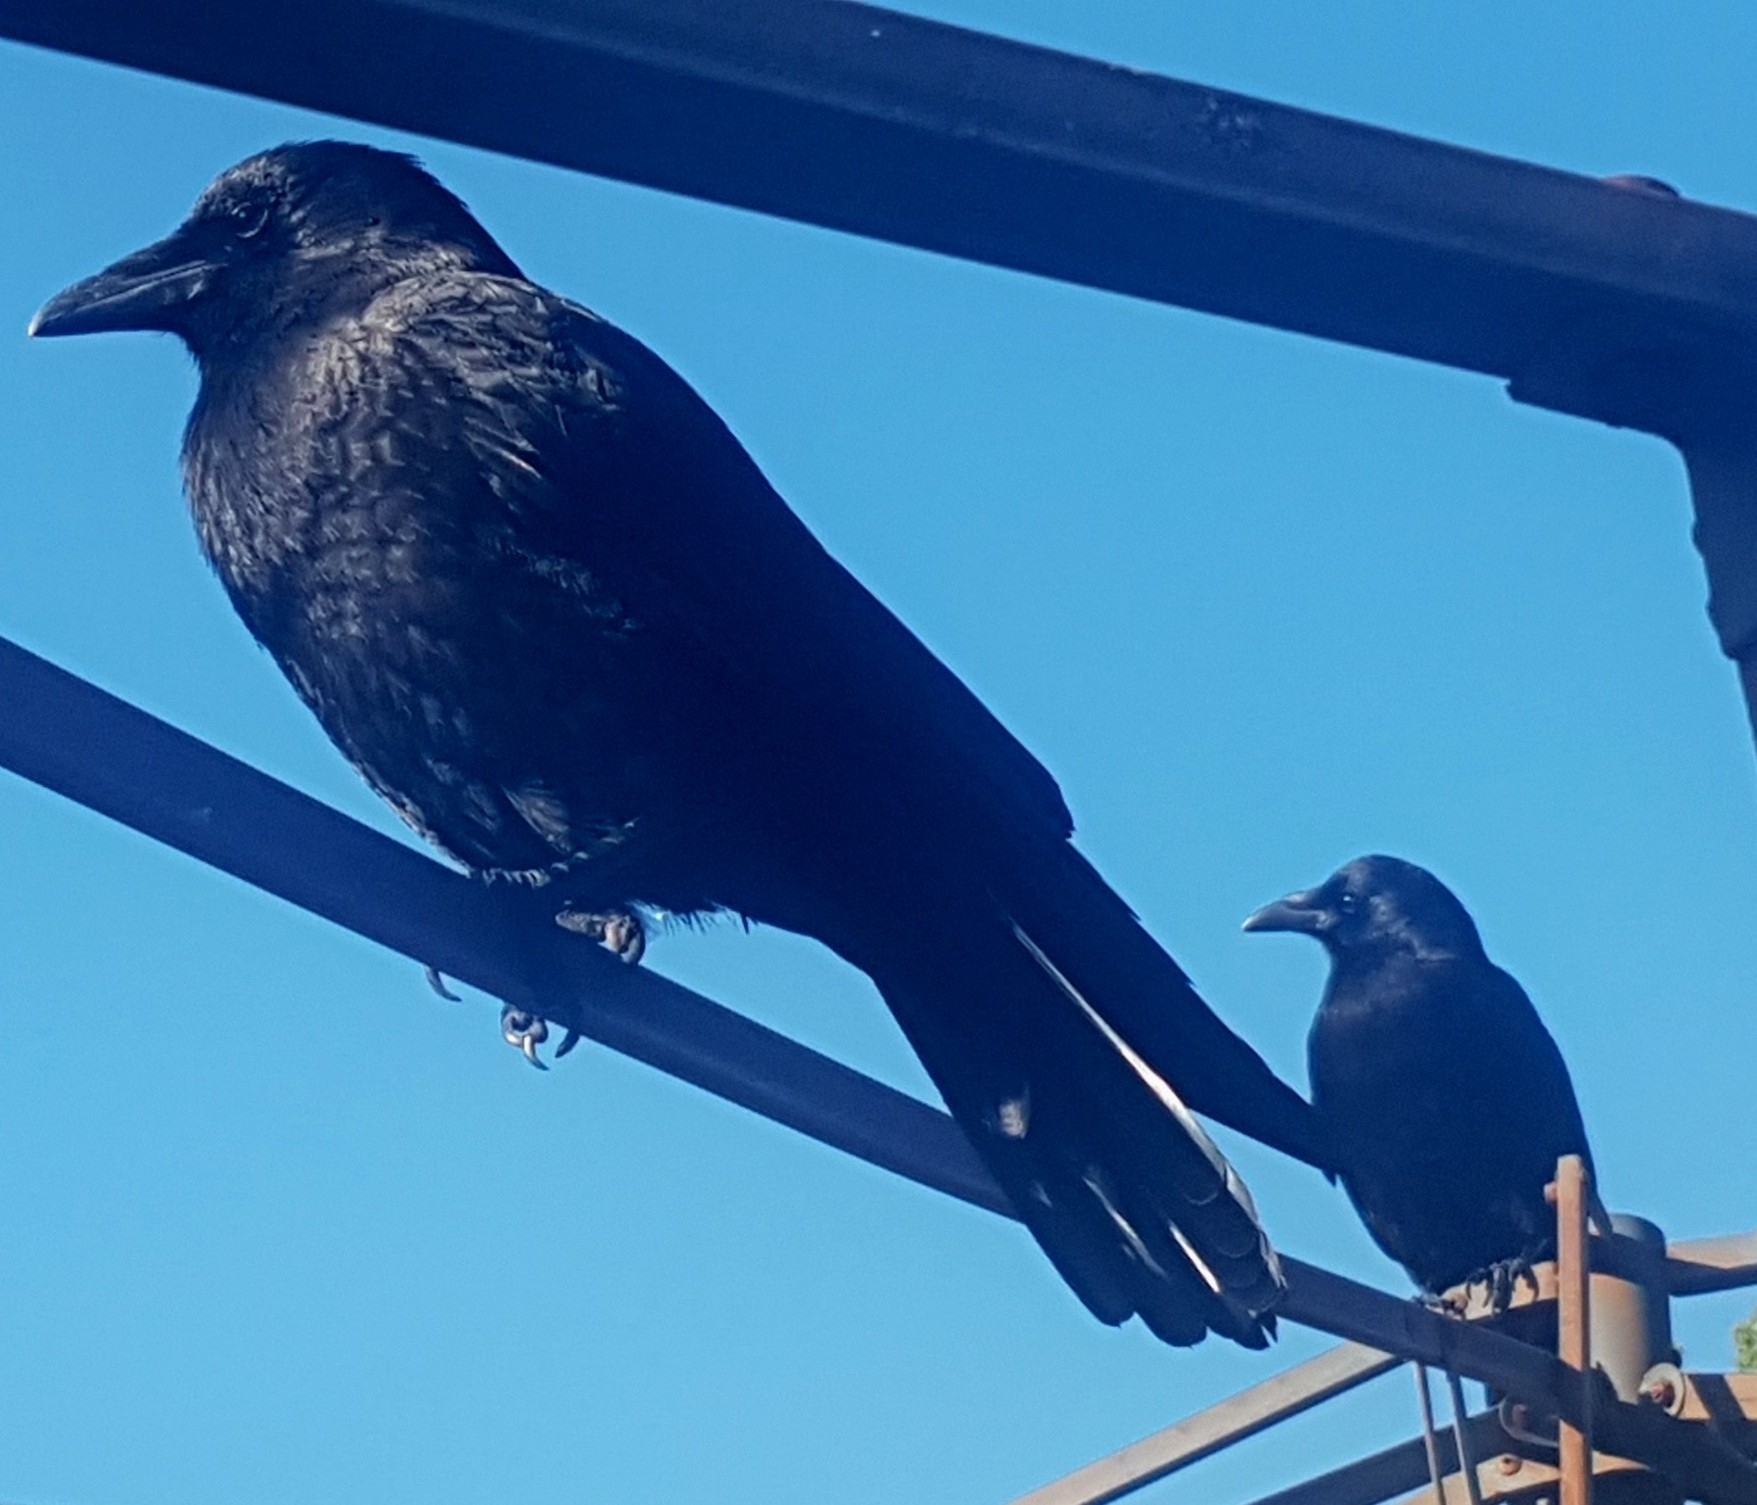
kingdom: Animalia
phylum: Chordata
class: Aves
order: Passeriformes
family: Corvidae
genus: Corvus
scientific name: Corvus brachyrhynchos
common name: American crow
